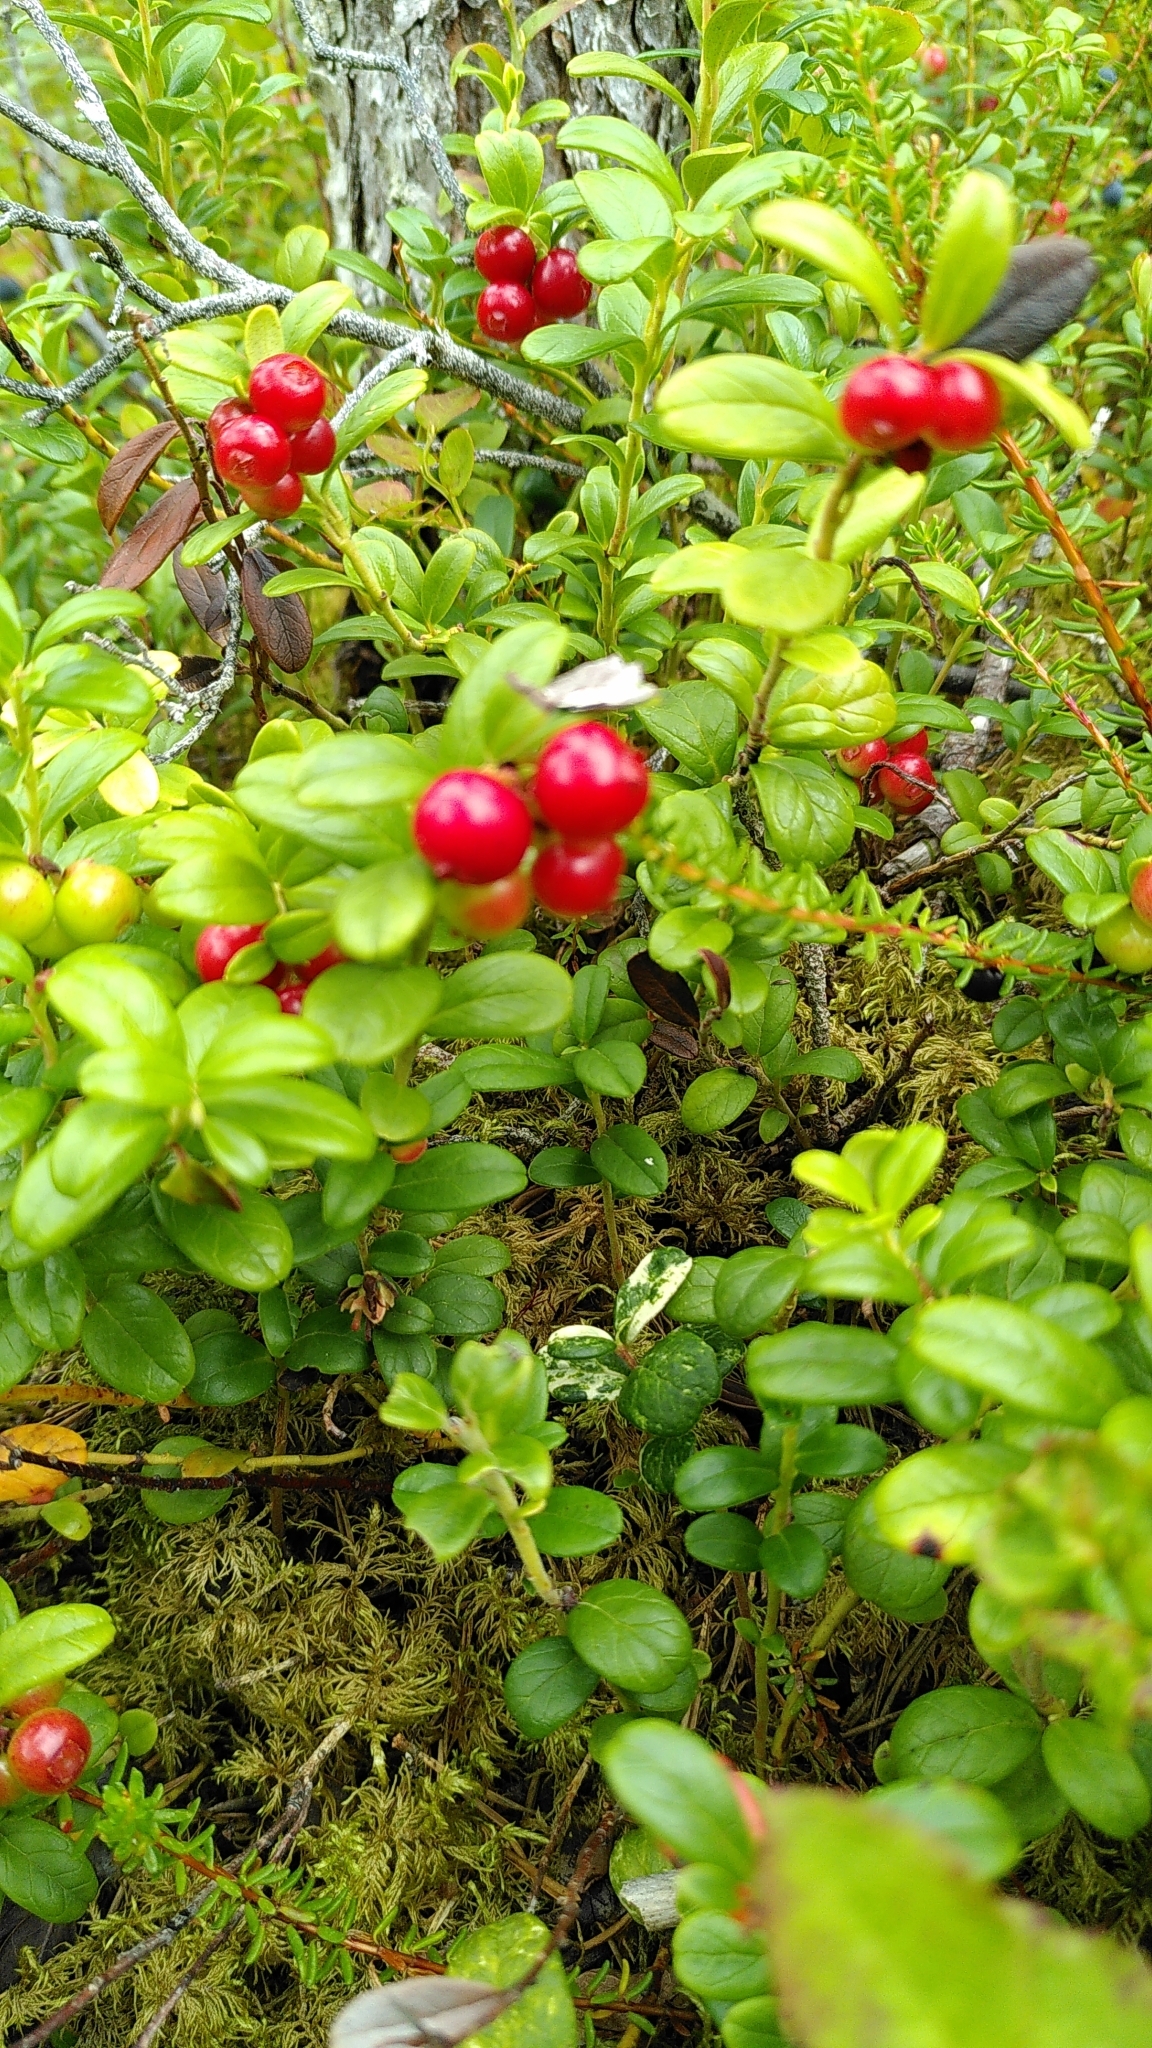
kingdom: Plantae
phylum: Tracheophyta
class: Magnoliopsida
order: Ericales
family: Ericaceae
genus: Vaccinium
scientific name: Vaccinium vitis-idaea
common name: Cowberry
